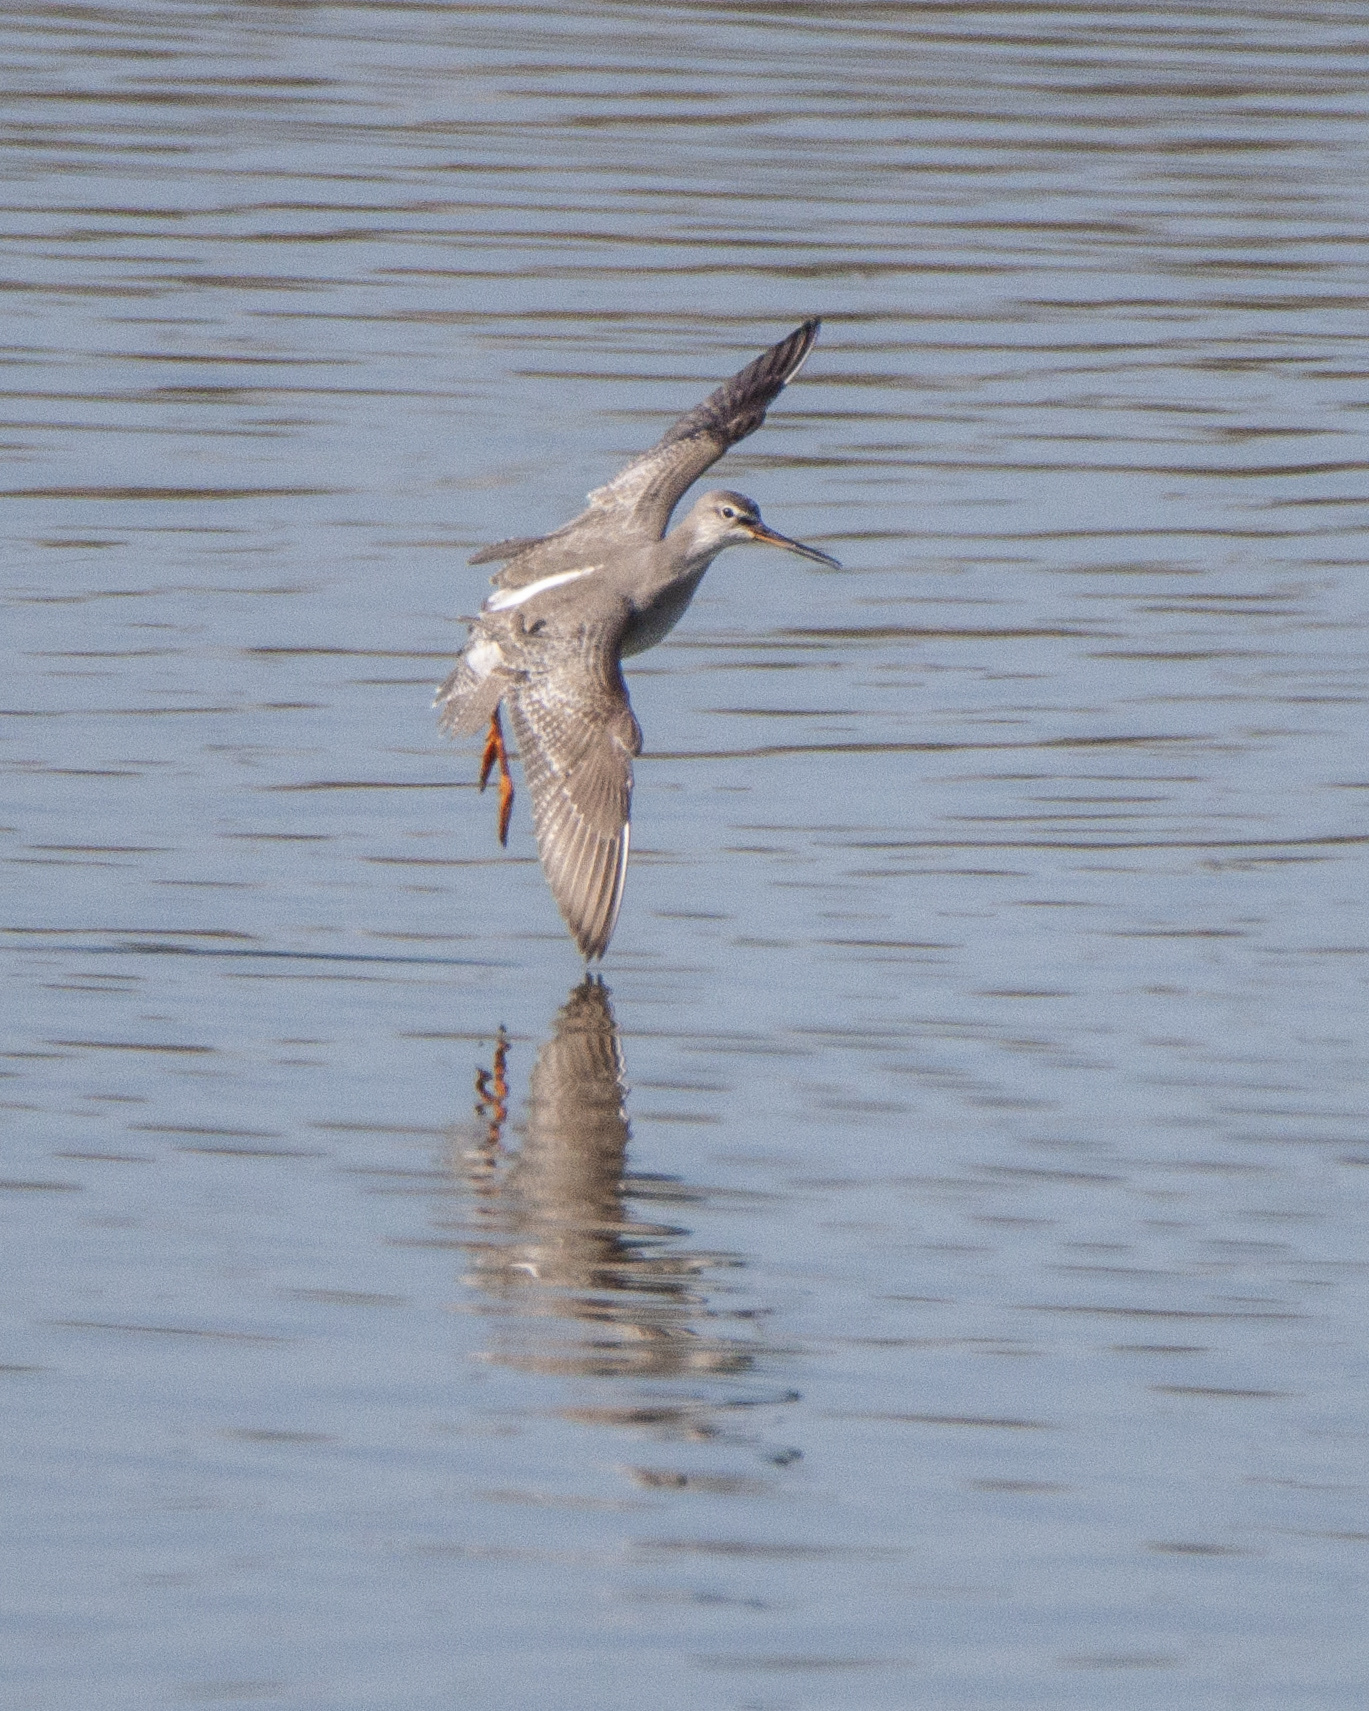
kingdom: Animalia
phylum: Chordata
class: Aves
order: Charadriiformes
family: Scolopacidae
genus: Tringa
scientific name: Tringa erythropus
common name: Spotted redshank
